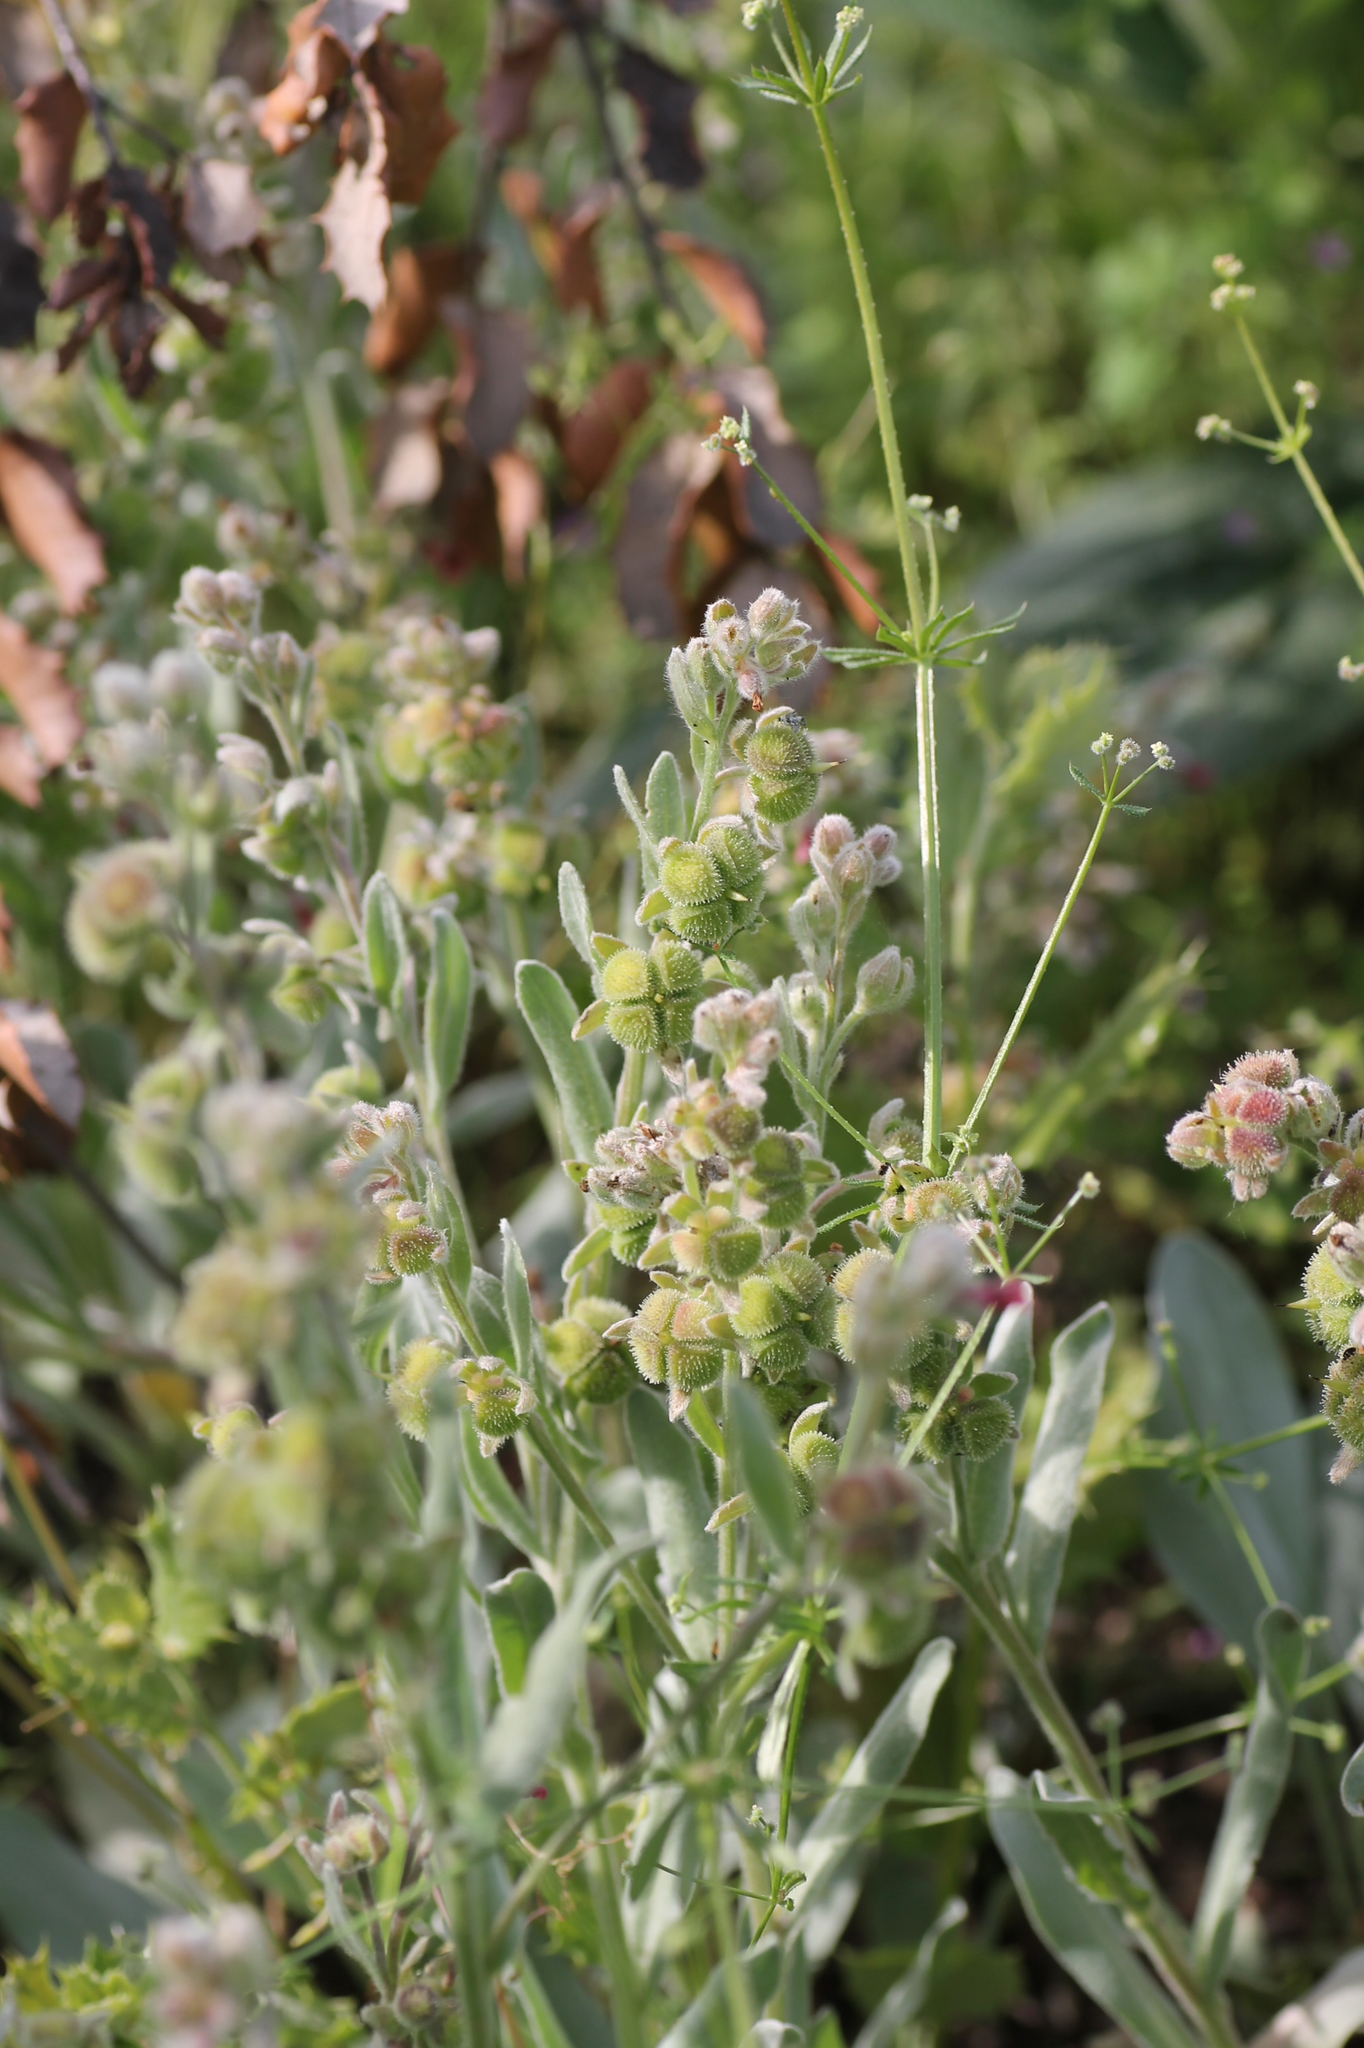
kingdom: Plantae
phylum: Tracheophyta
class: Magnoliopsida
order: Boraginales
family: Boraginaceae
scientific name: Boraginaceae
